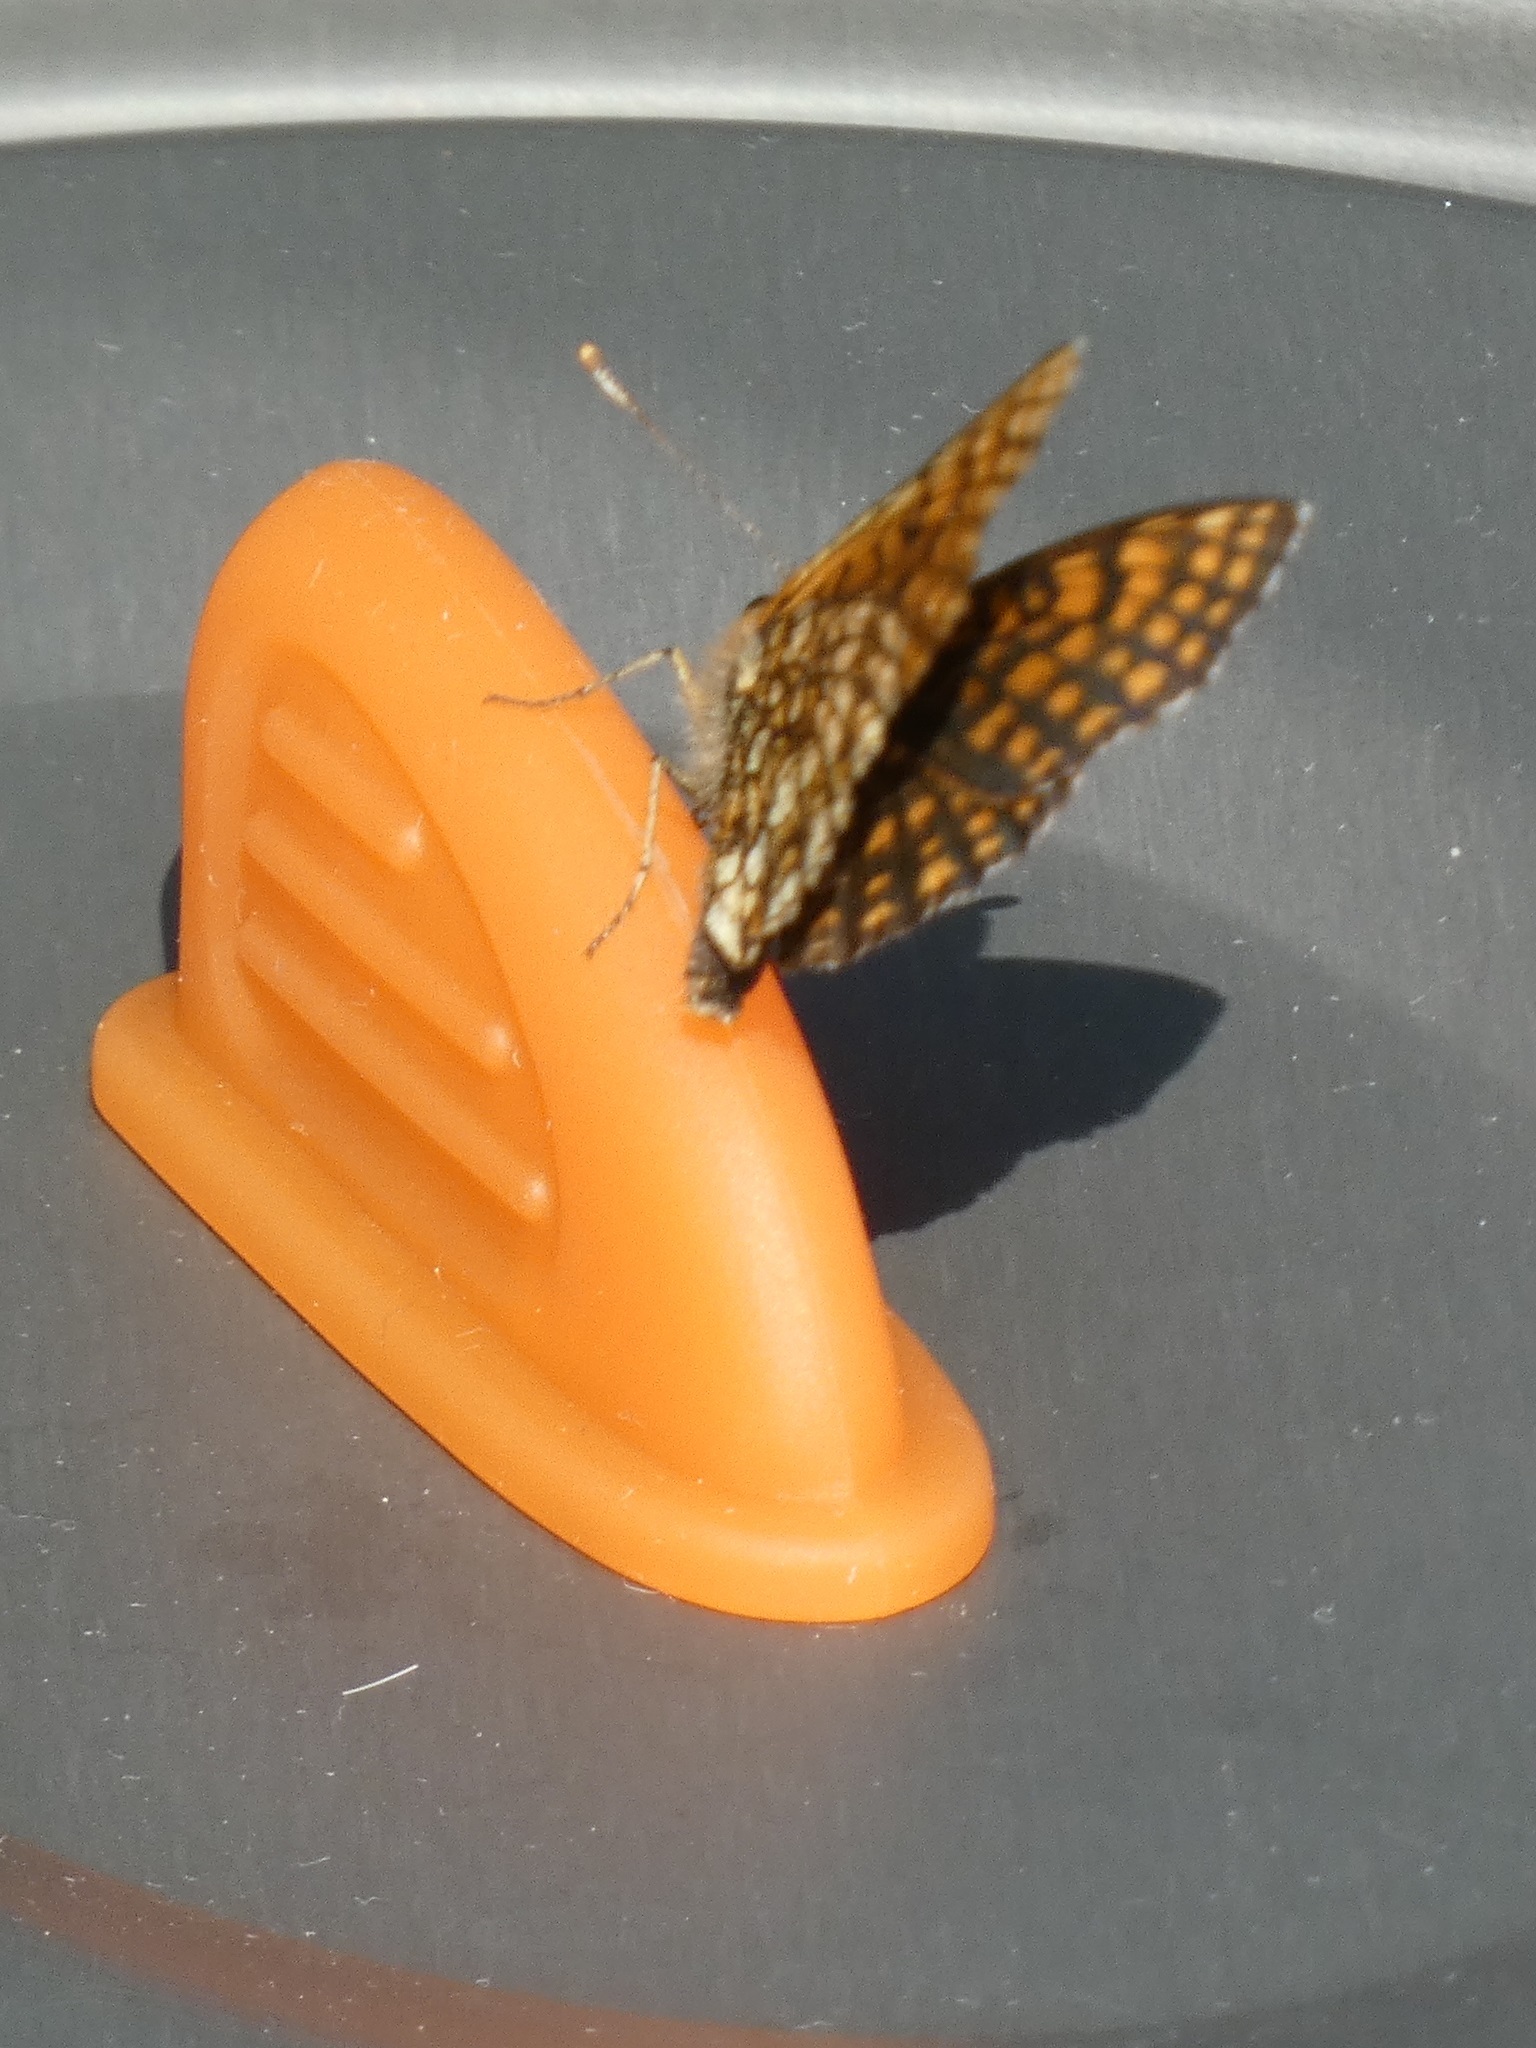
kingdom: Animalia
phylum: Arthropoda
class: Insecta
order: Lepidoptera
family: Nymphalidae
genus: Melitaea
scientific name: Melitaea athalia
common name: Heath fritillary
